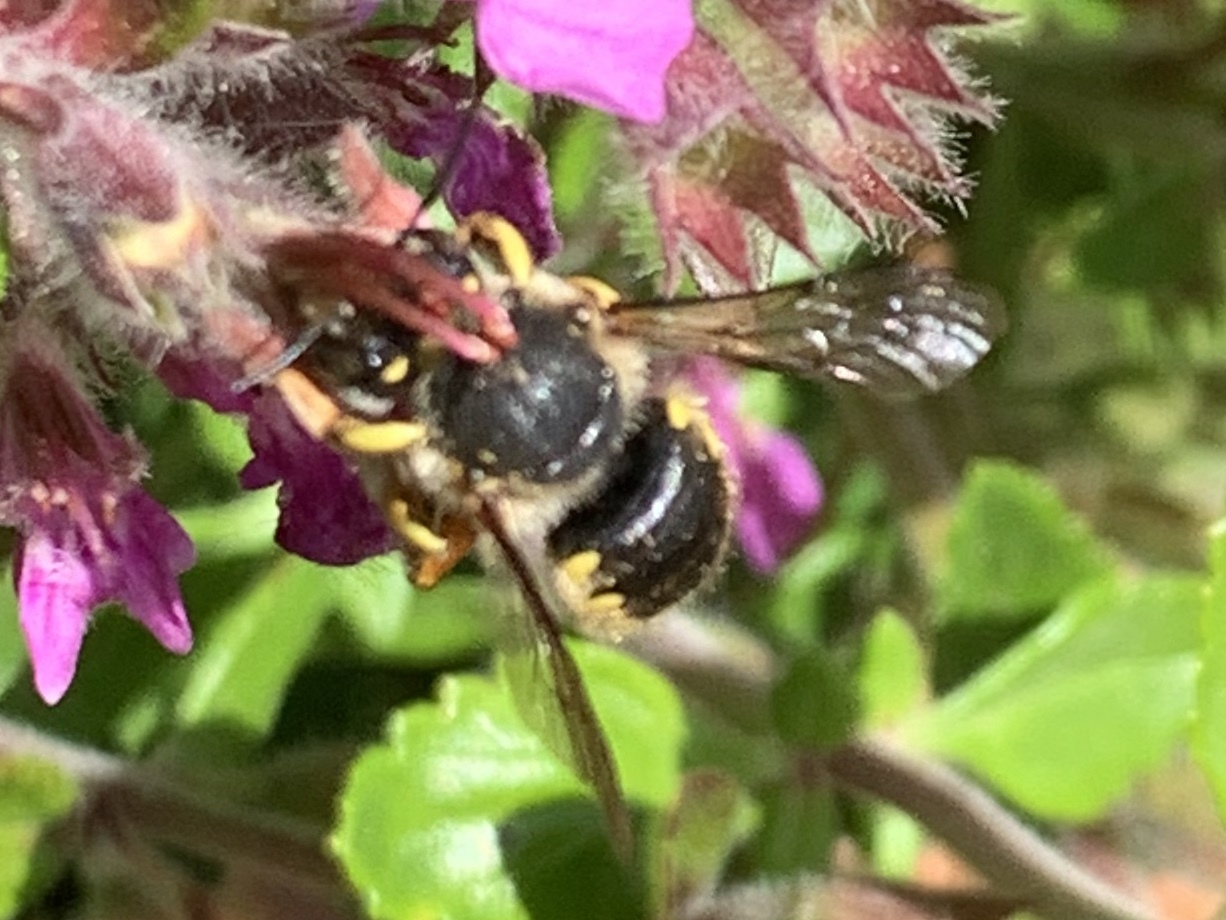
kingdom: Animalia
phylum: Arthropoda
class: Insecta
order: Hymenoptera
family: Megachilidae
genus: Anthidium
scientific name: Anthidium oblongatum
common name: Oblong wool carder bee
